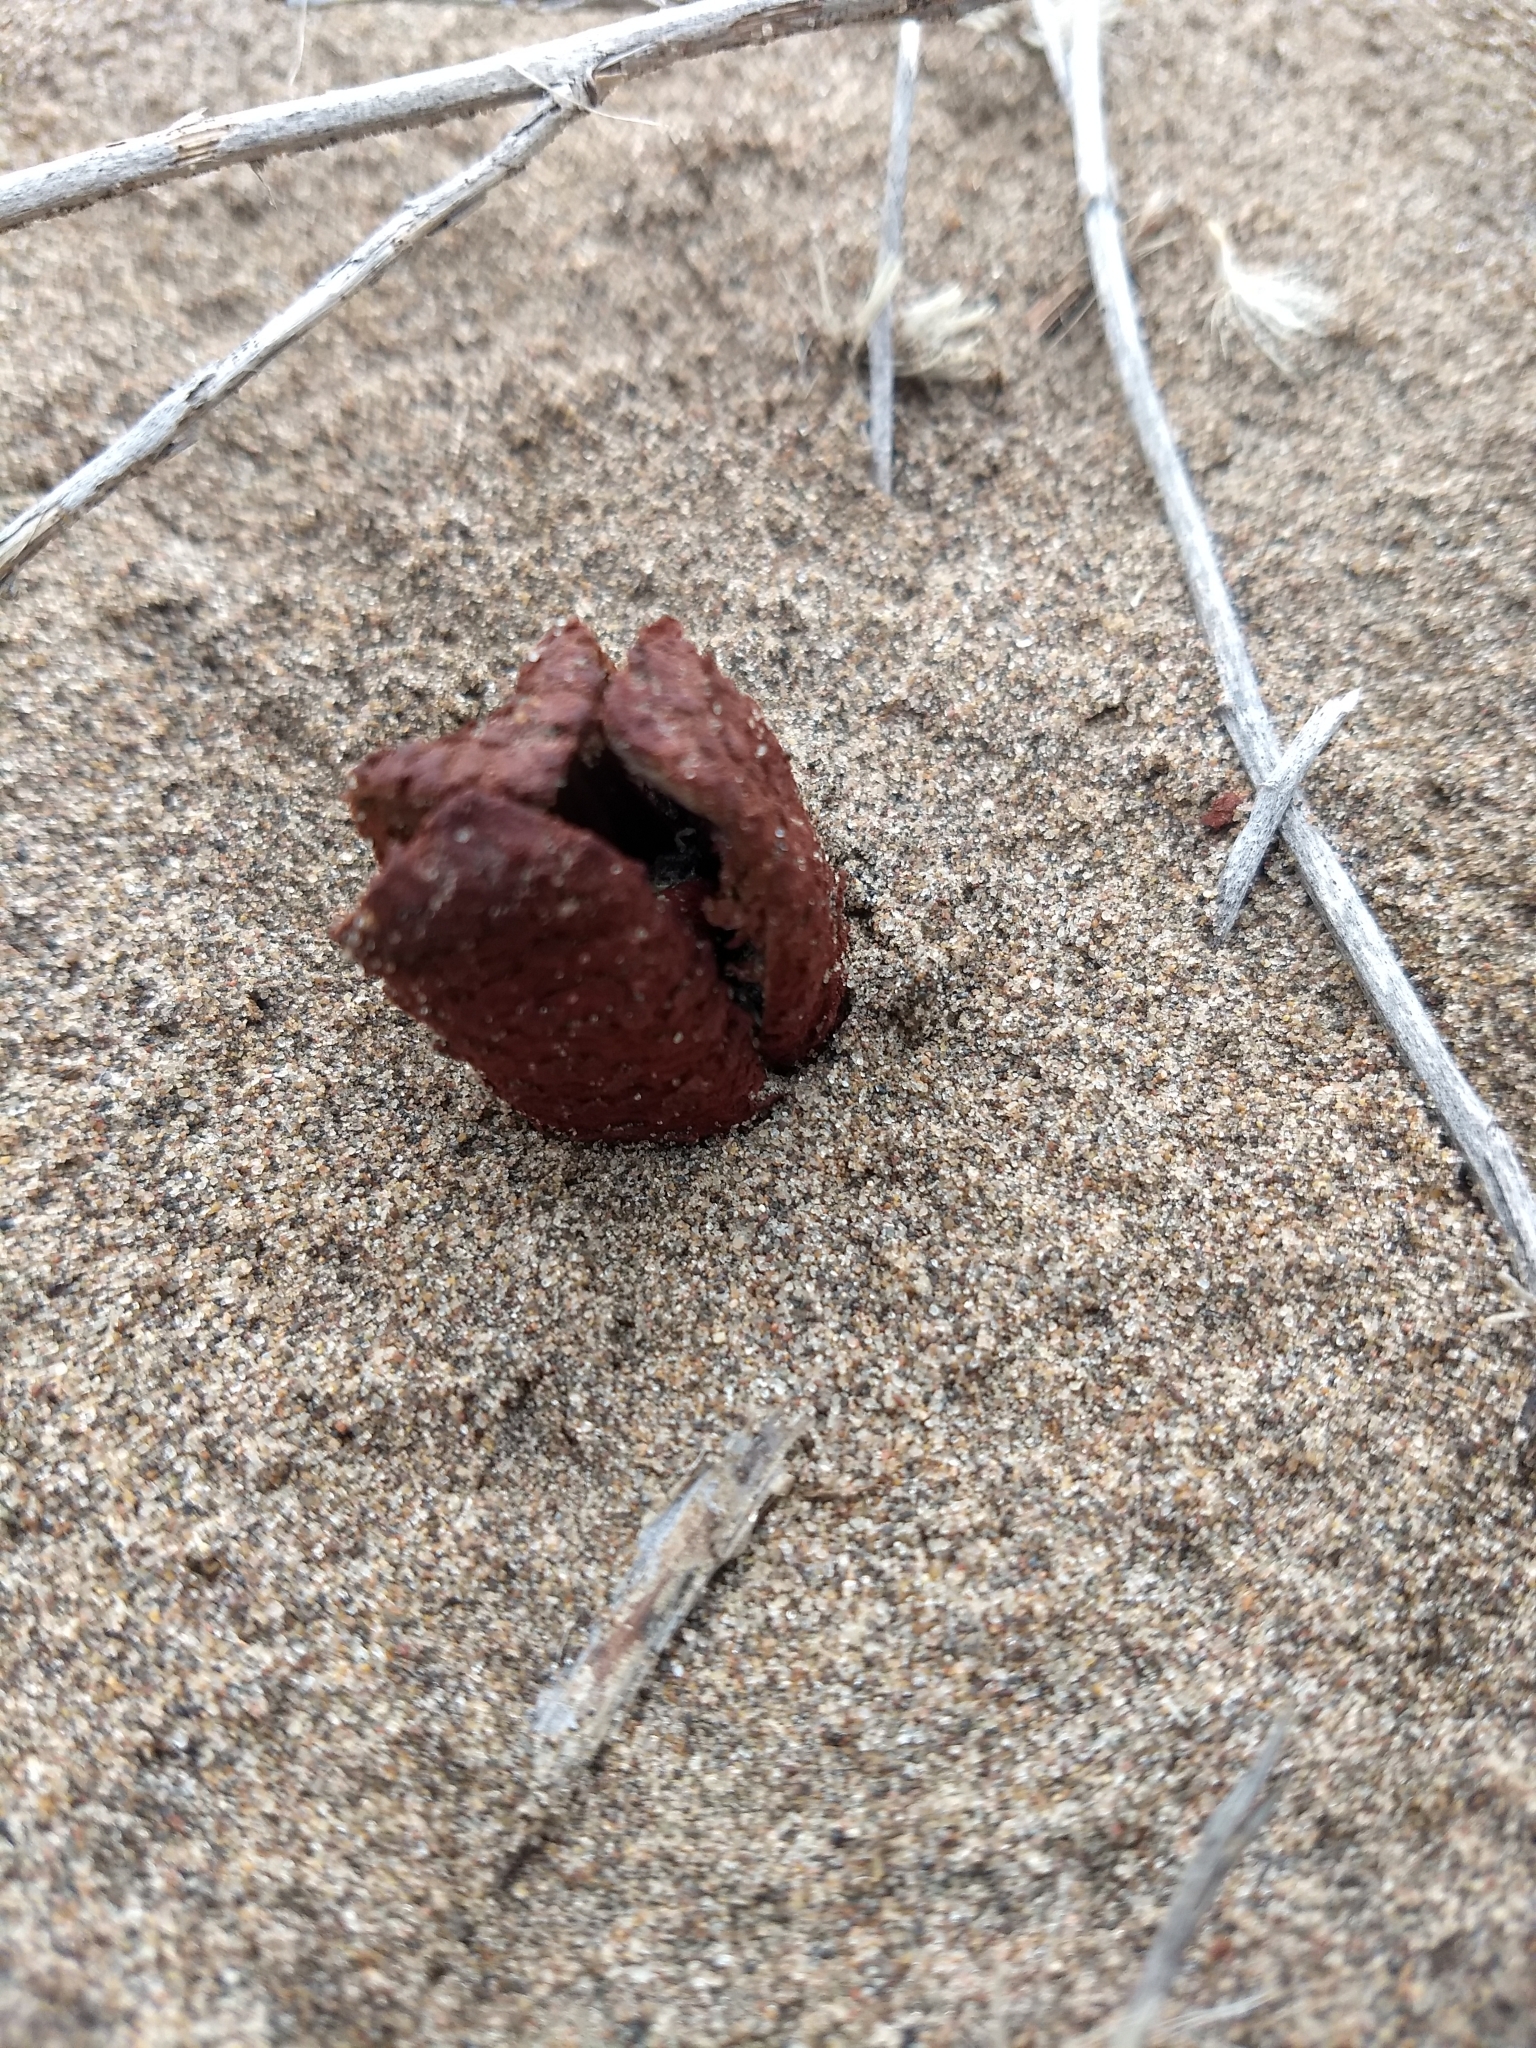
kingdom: Plantae
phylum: Tracheophyta
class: Magnoliopsida
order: Piperales
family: Hydnoraceae
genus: Prosopanche
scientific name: Prosopanche bonacinae
